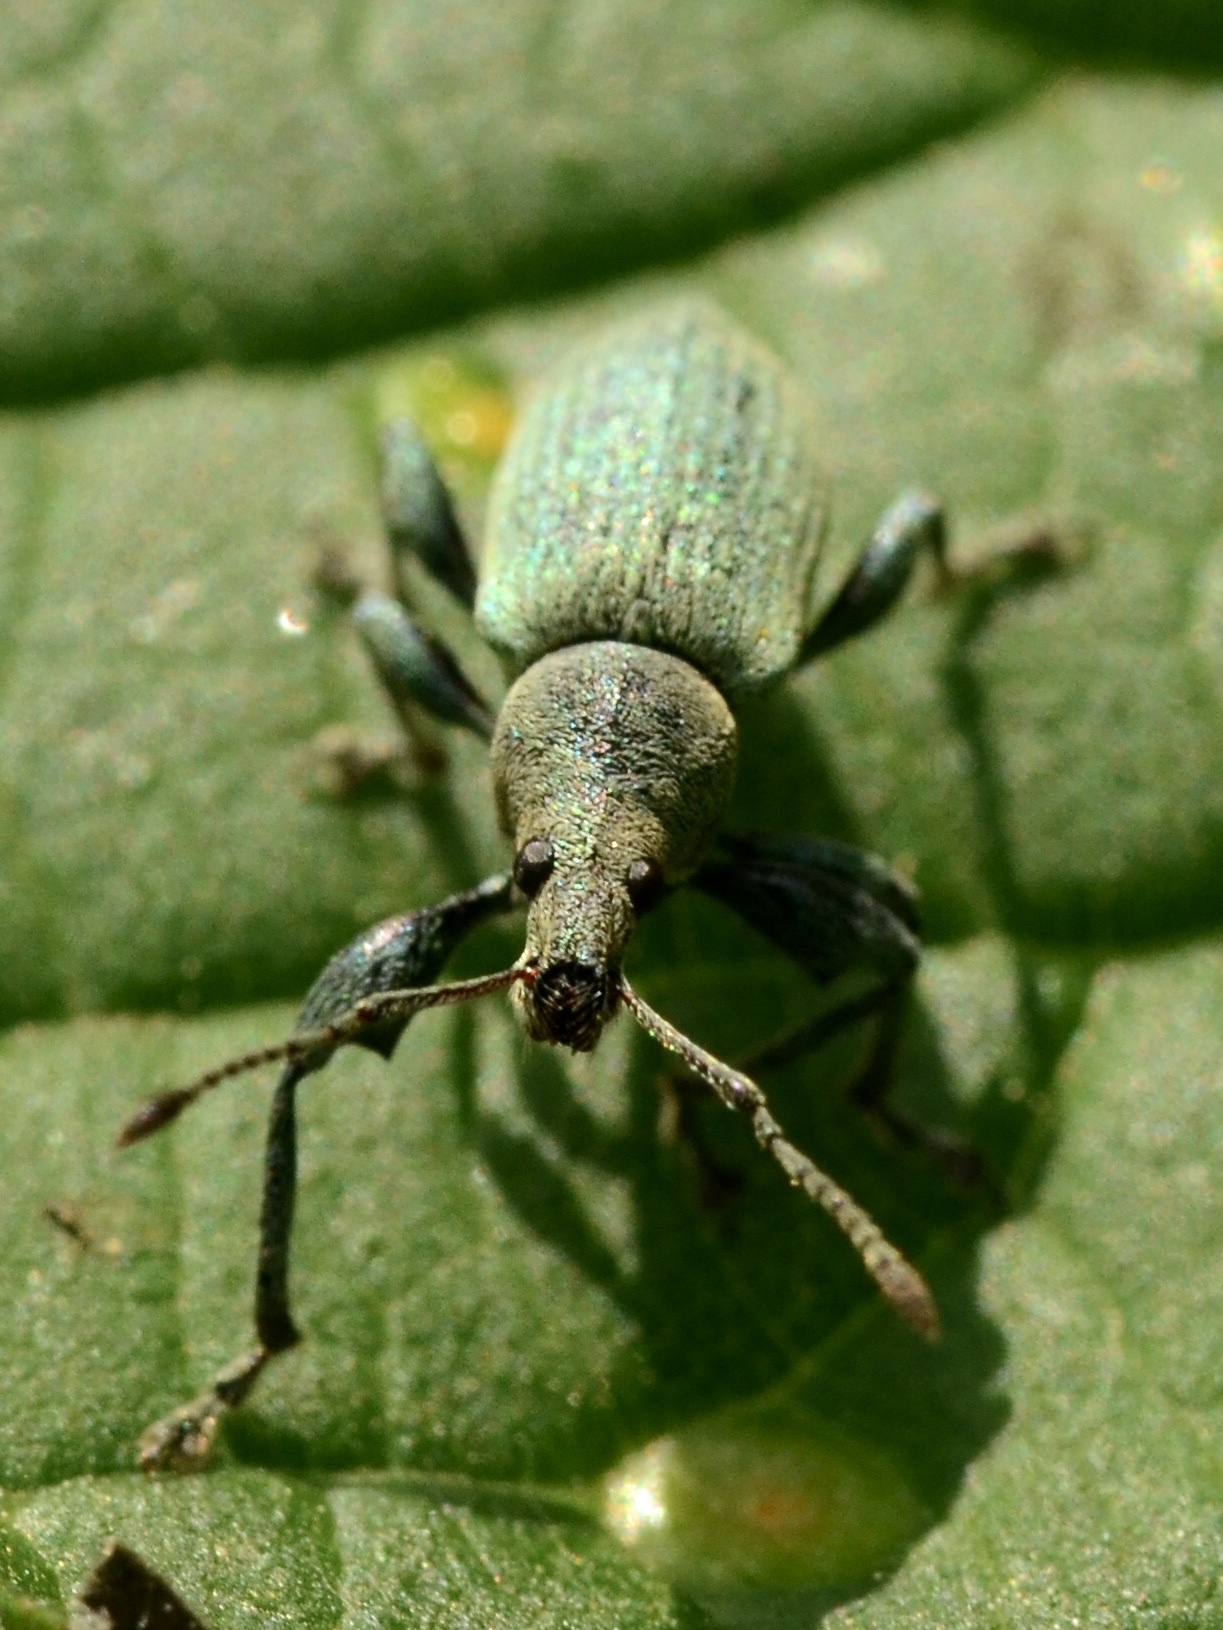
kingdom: Animalia
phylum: Arthropoda
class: Insecta
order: Coleoptera
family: Curculionidae
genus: Phyllobius
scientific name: Phyllobius pomaceus
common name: Green nettle weevil
